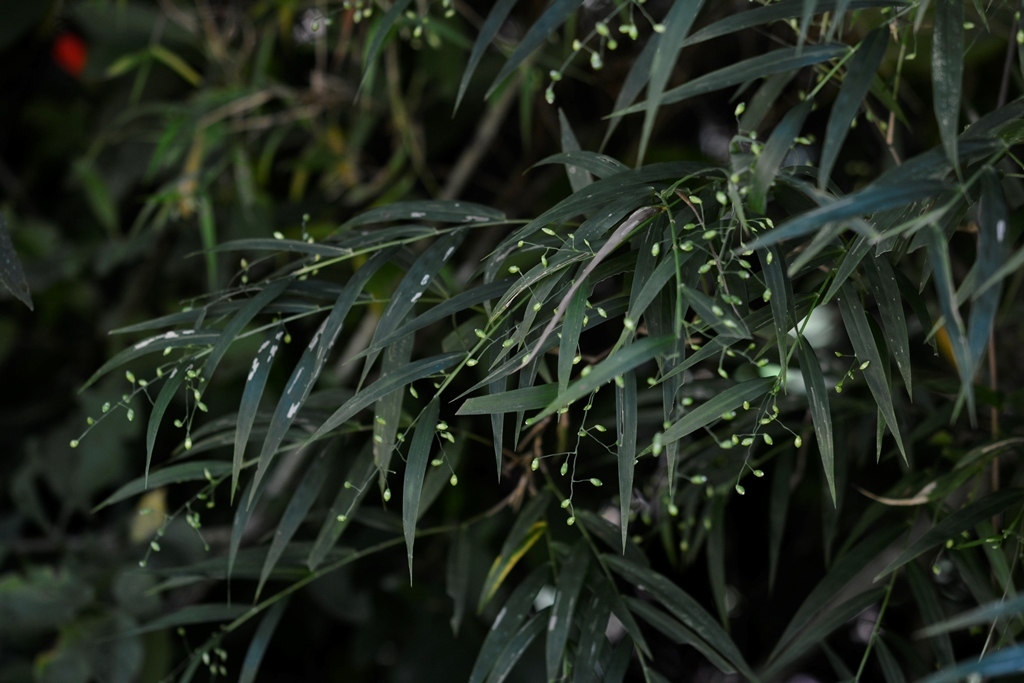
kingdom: Plantae
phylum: Tracheophyta
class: Liliopsida
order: Poales
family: Poaceae
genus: Lasiacis
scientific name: Lasiacis nigra
